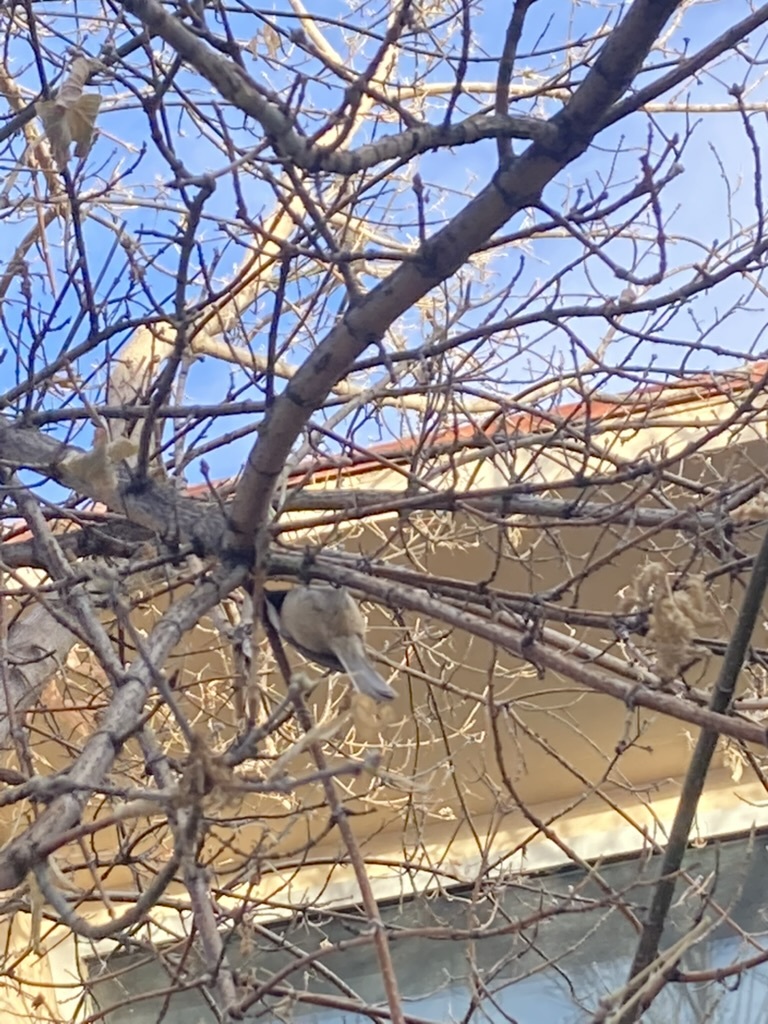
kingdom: Animalia
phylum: Chordata
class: Aves
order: Passeriformes
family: Paridae
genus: Poecile
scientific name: Poecile atricapillus
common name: Black-capped chickadee
